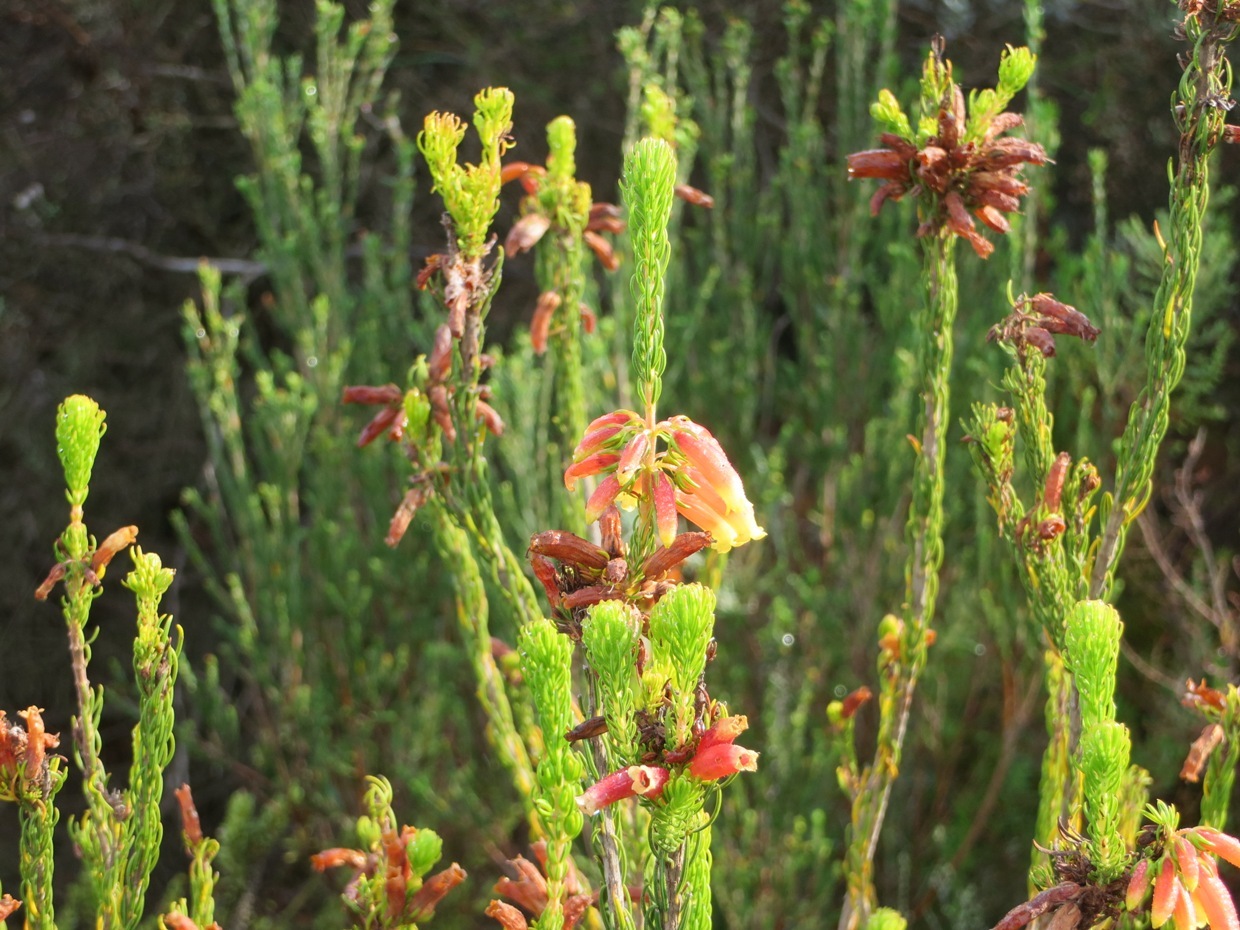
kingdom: Plantae
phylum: Tracheophyta
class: Magnoliopsida
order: Ericales
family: Ericaceae
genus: Erica
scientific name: Erica viscaria
